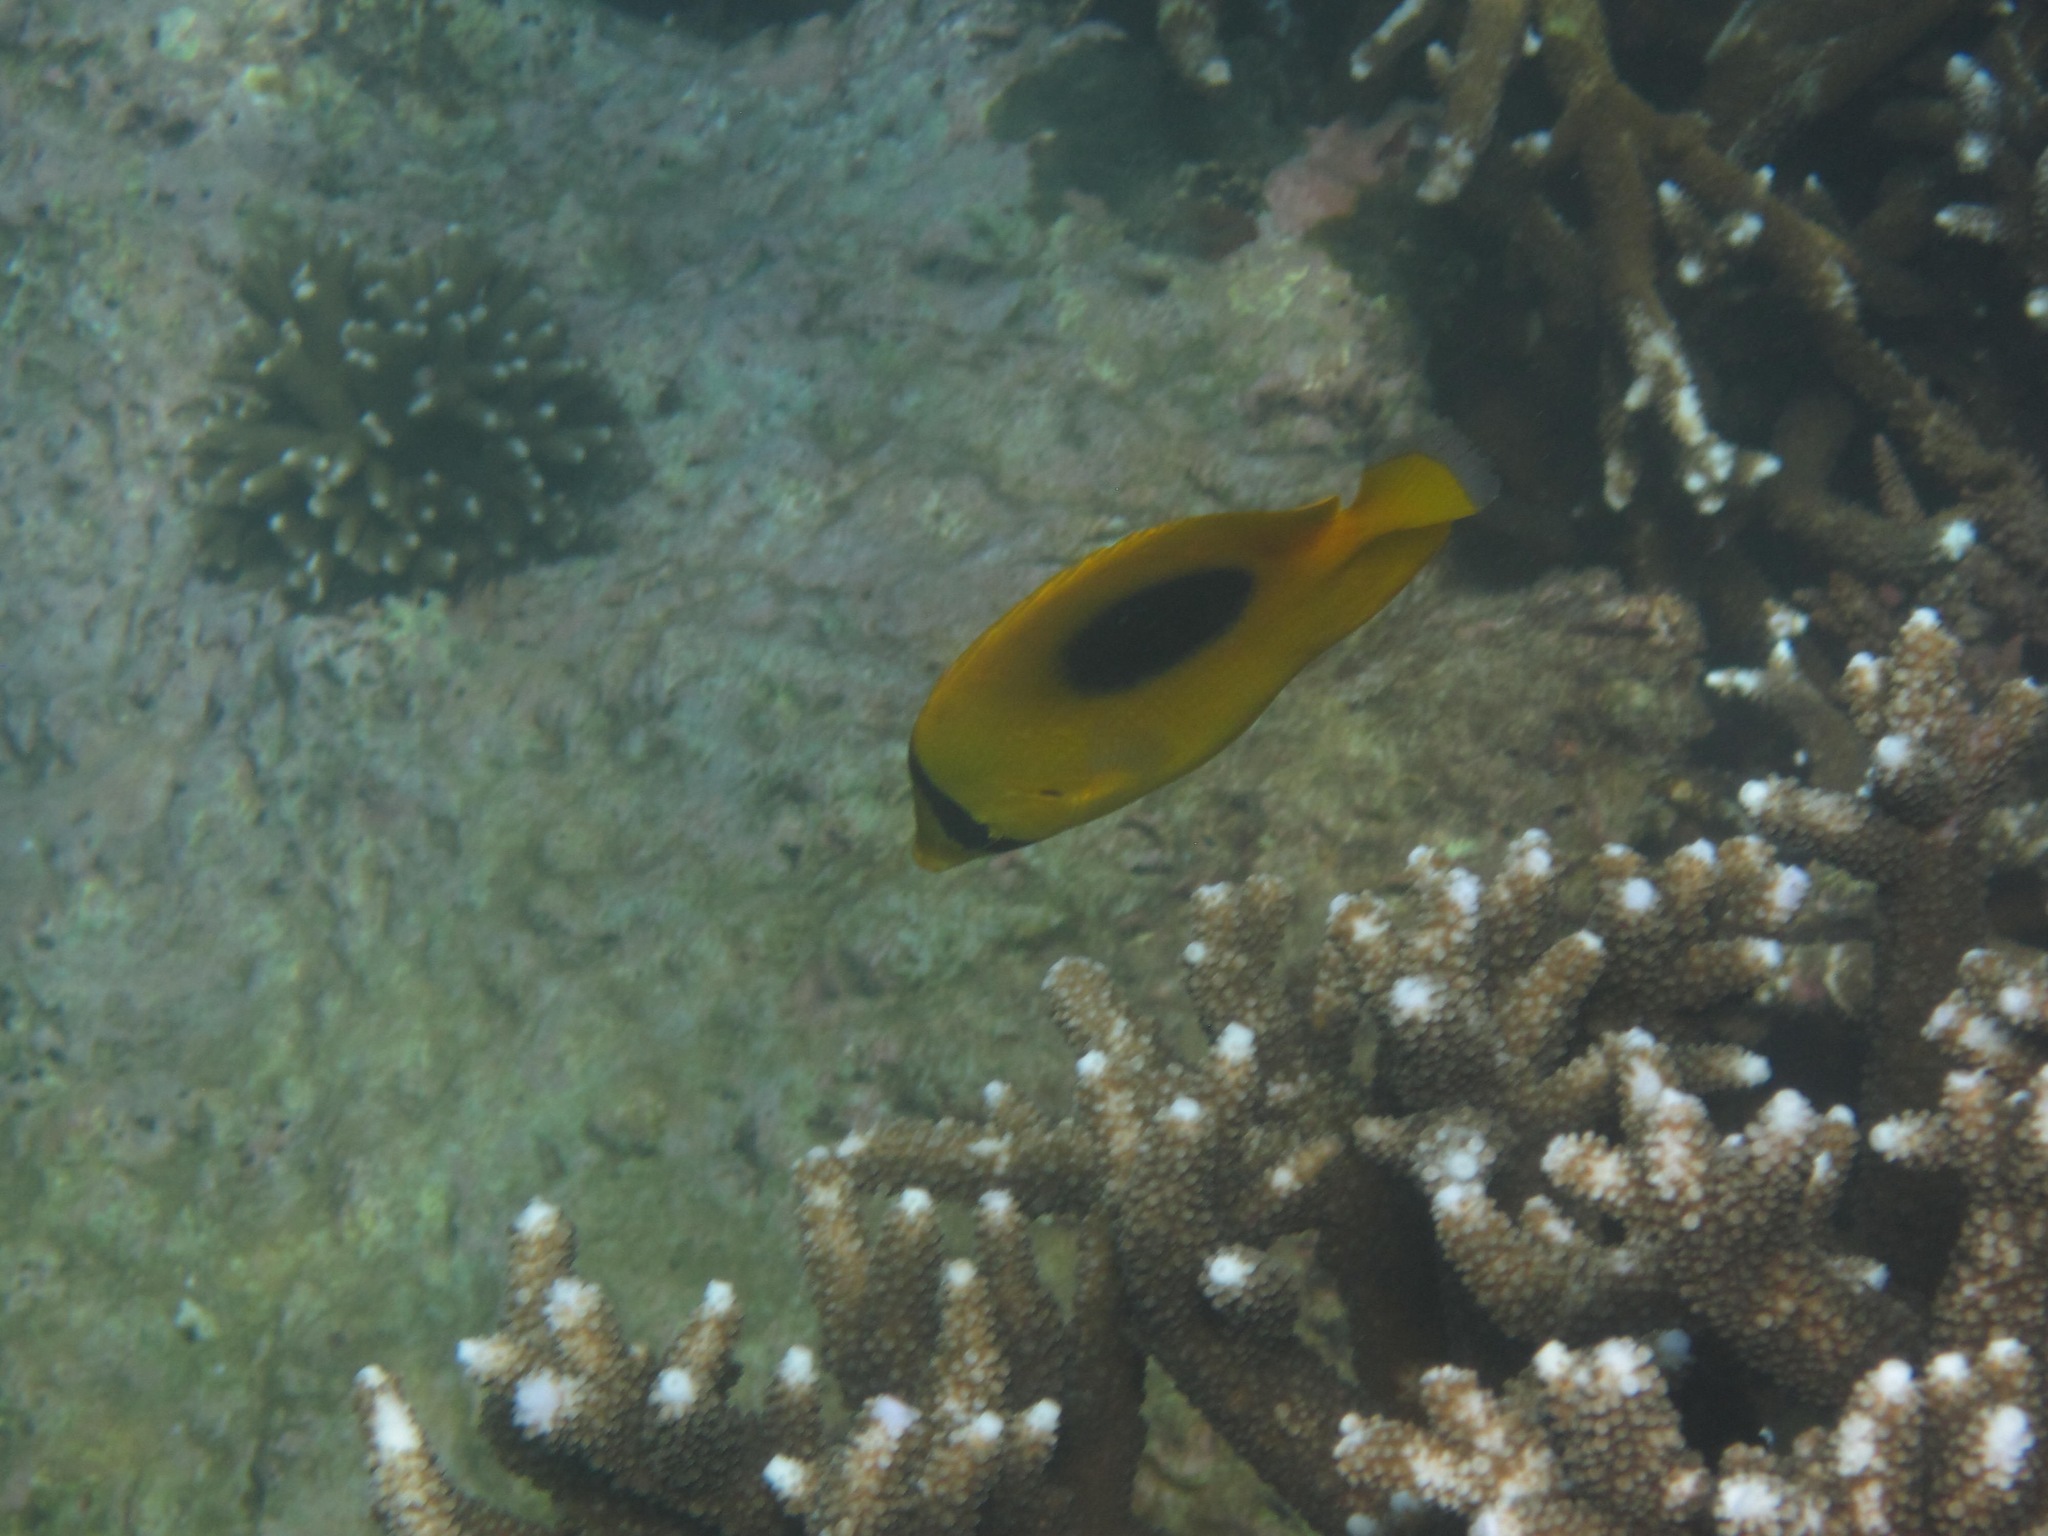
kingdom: Animalia
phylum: Chordata
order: Perciformes
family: Chaetodontidae
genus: Chaetodon
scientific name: Chaetodon speculum
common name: Mirror butterflyfish
